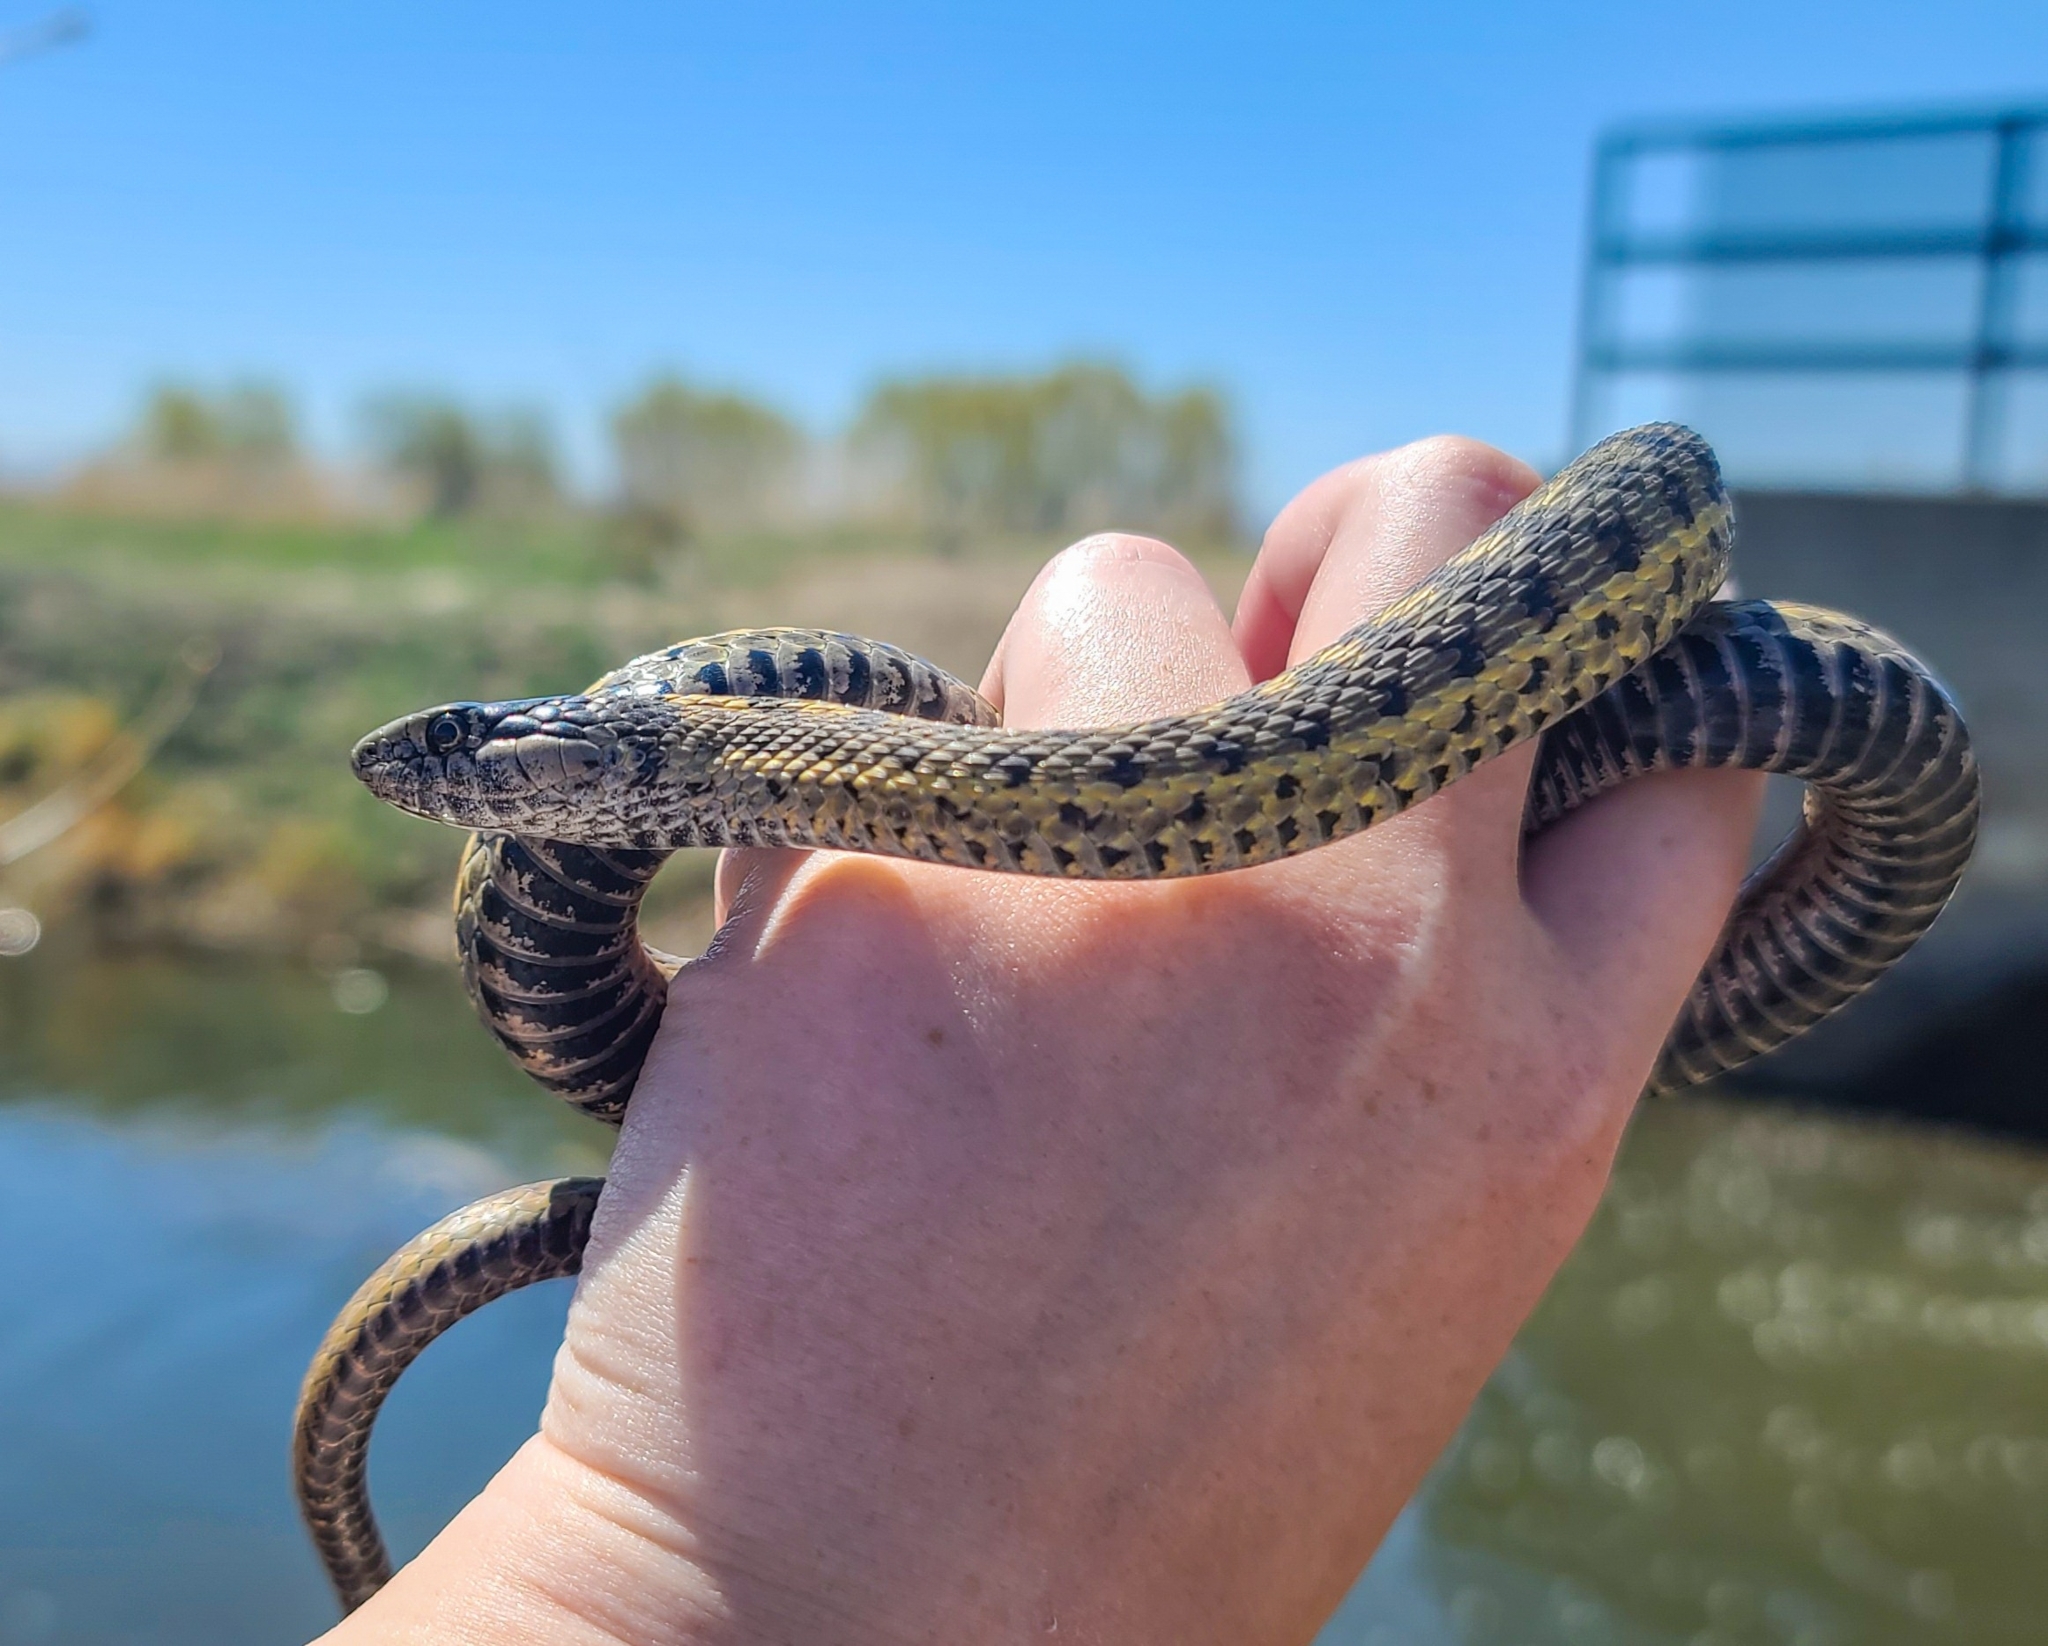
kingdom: Animalia
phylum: Chordata
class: Squamata
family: Colubridae
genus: Thamnophis
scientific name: Thamnophis elegans
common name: Western terrestrial garter snake
